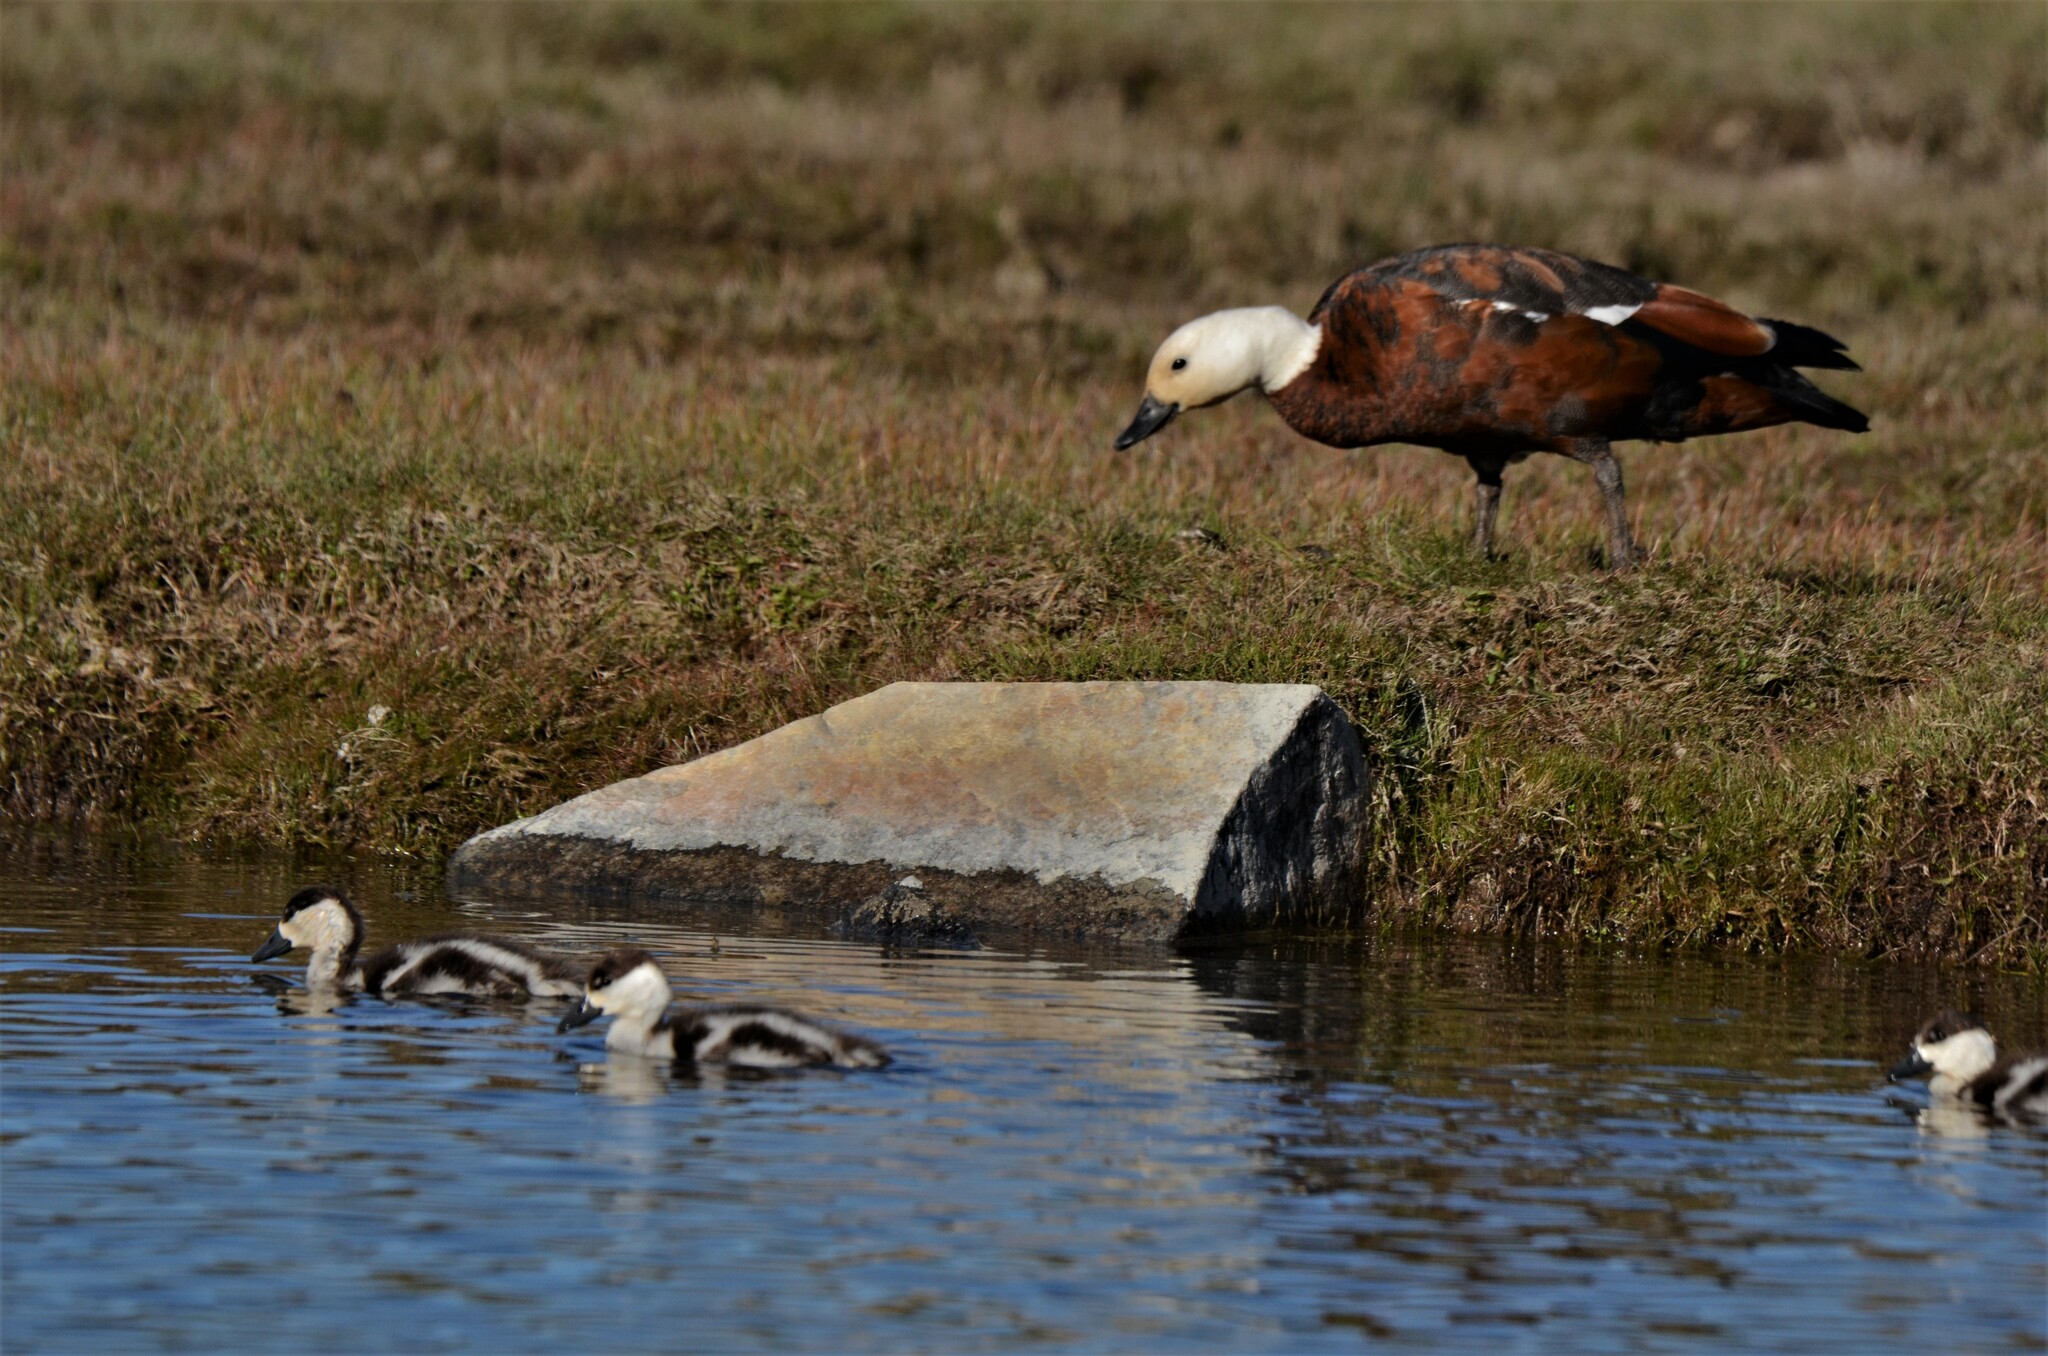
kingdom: Animalia
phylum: Chordata
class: Aves
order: Anseriformes
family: Anatidae
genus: Tadorna
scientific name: Tadorna variegata
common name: Paradise shelduck
